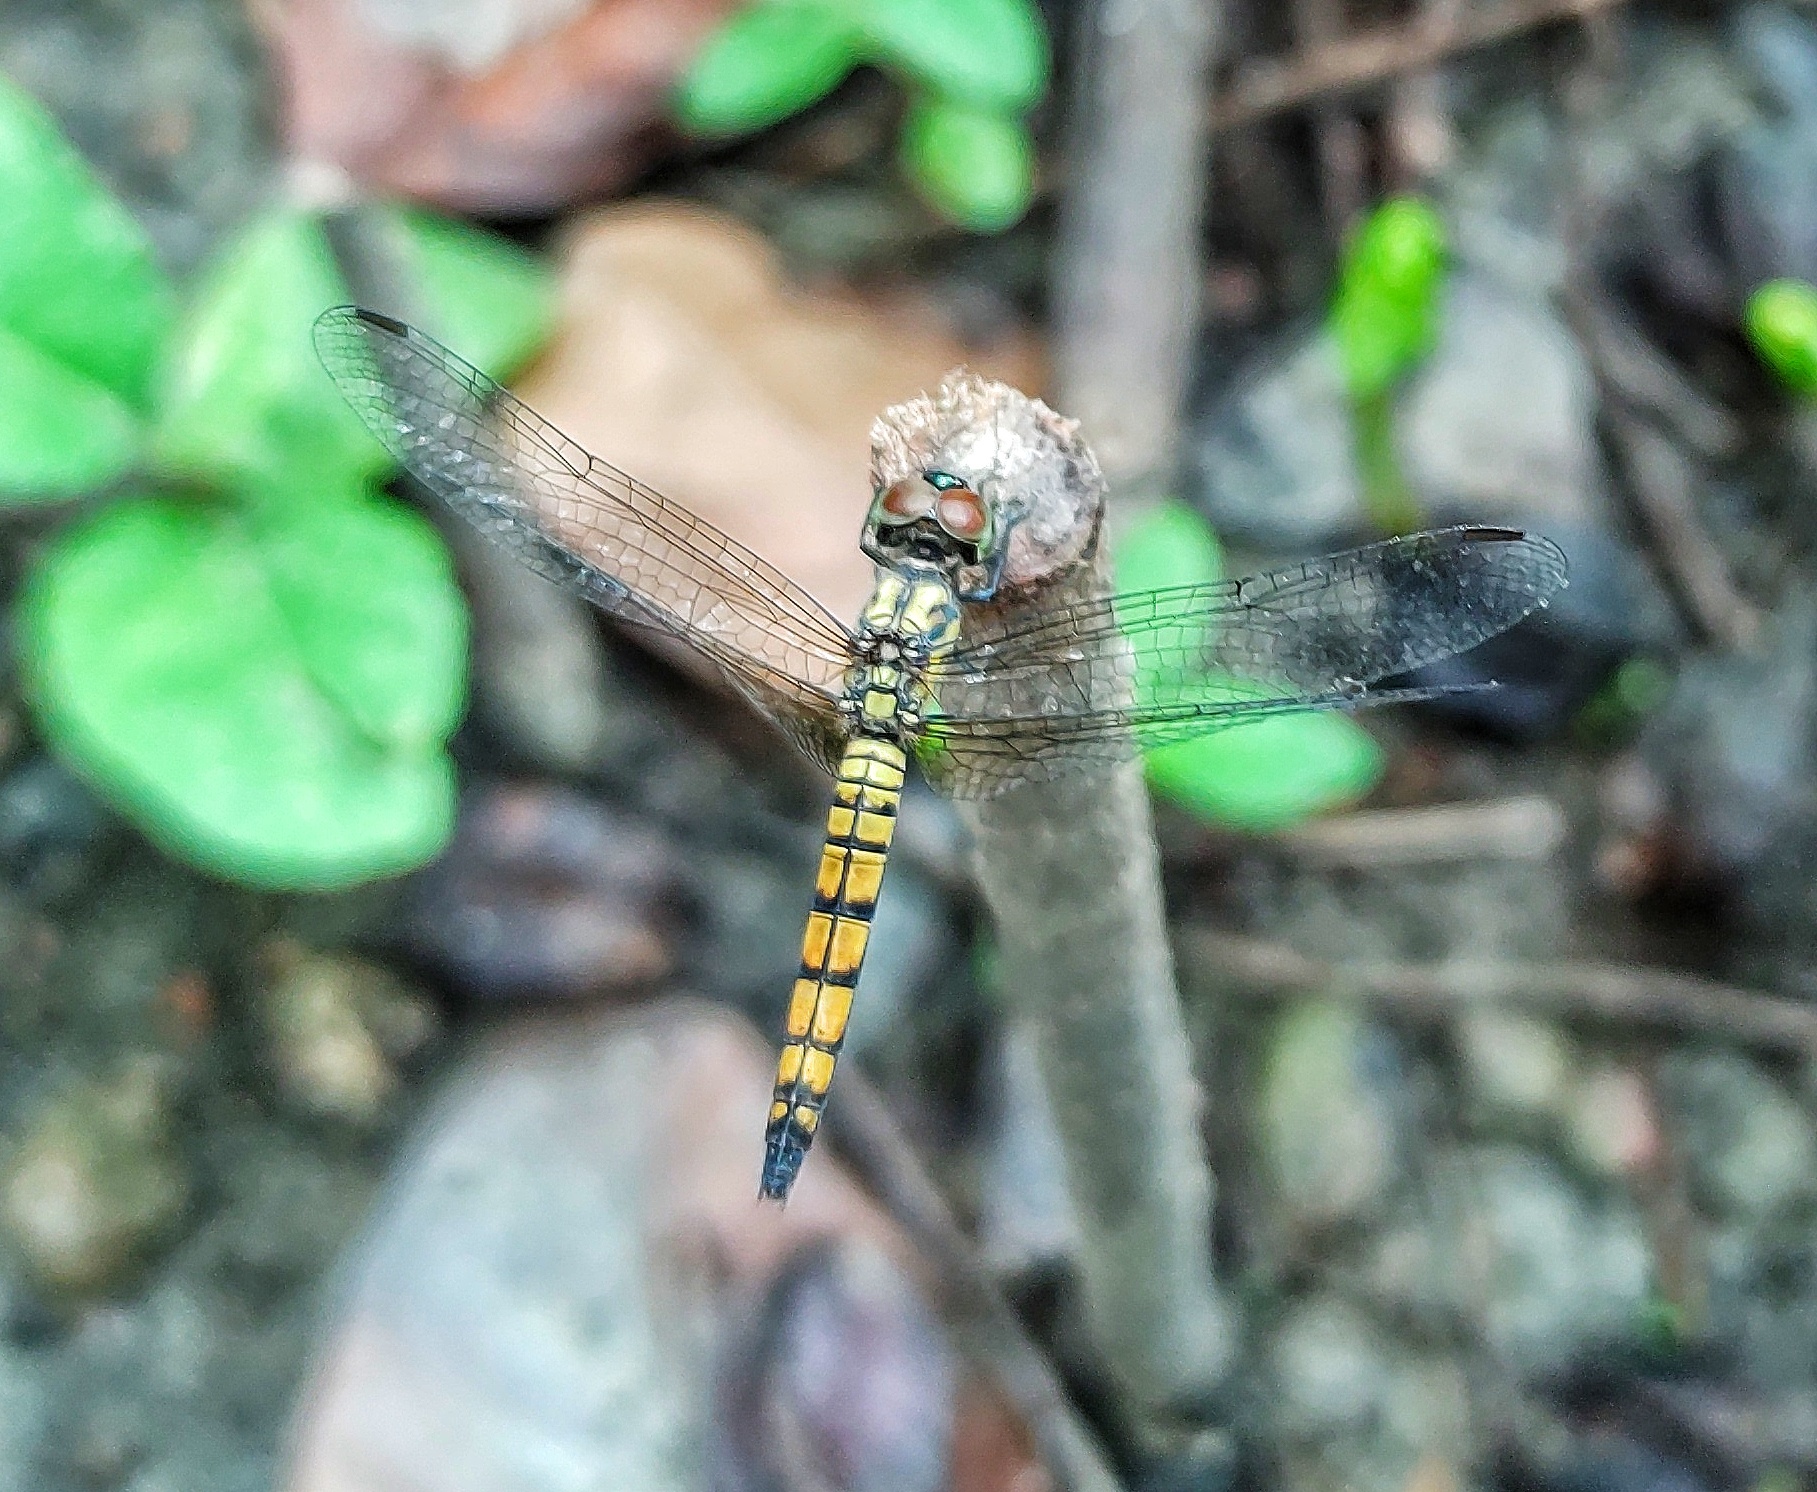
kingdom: Animalia
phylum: Arthropoda
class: Insecta
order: Odonata
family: Libellulidae
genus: Brachydiplax
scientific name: Brachydiplax chalybea
